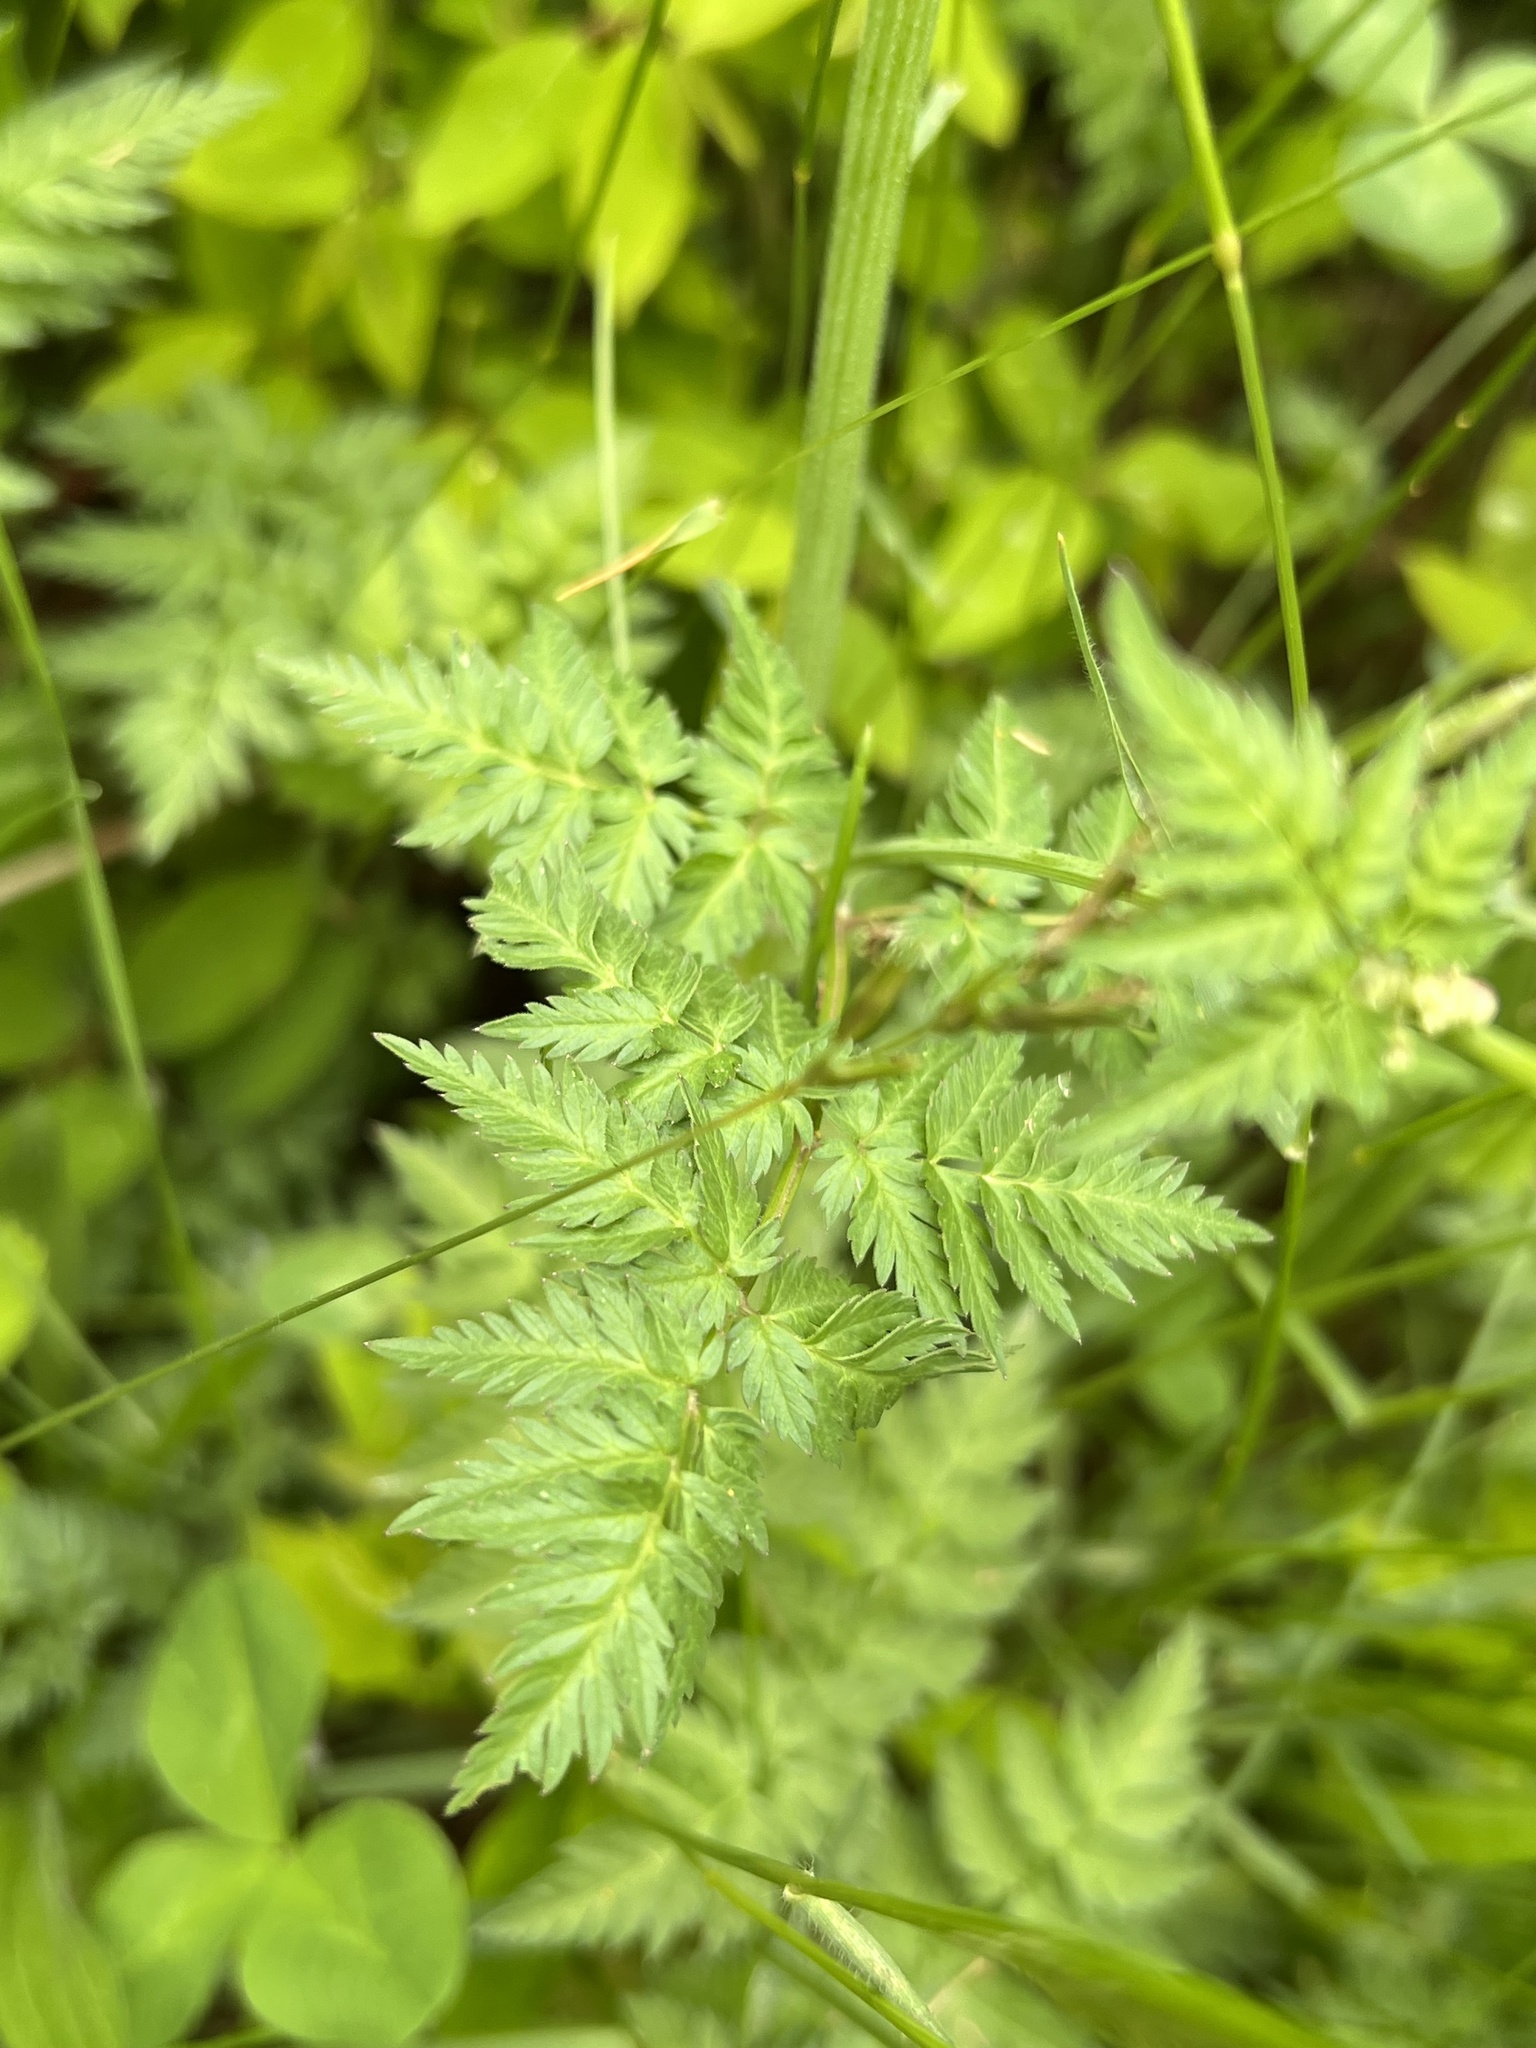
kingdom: Plantae
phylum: Tracheophyta
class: Magnoliopsida
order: Apiales
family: Apiaceae
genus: Anthriscus
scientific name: Anthriscus sylvestris
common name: Cow parsley
